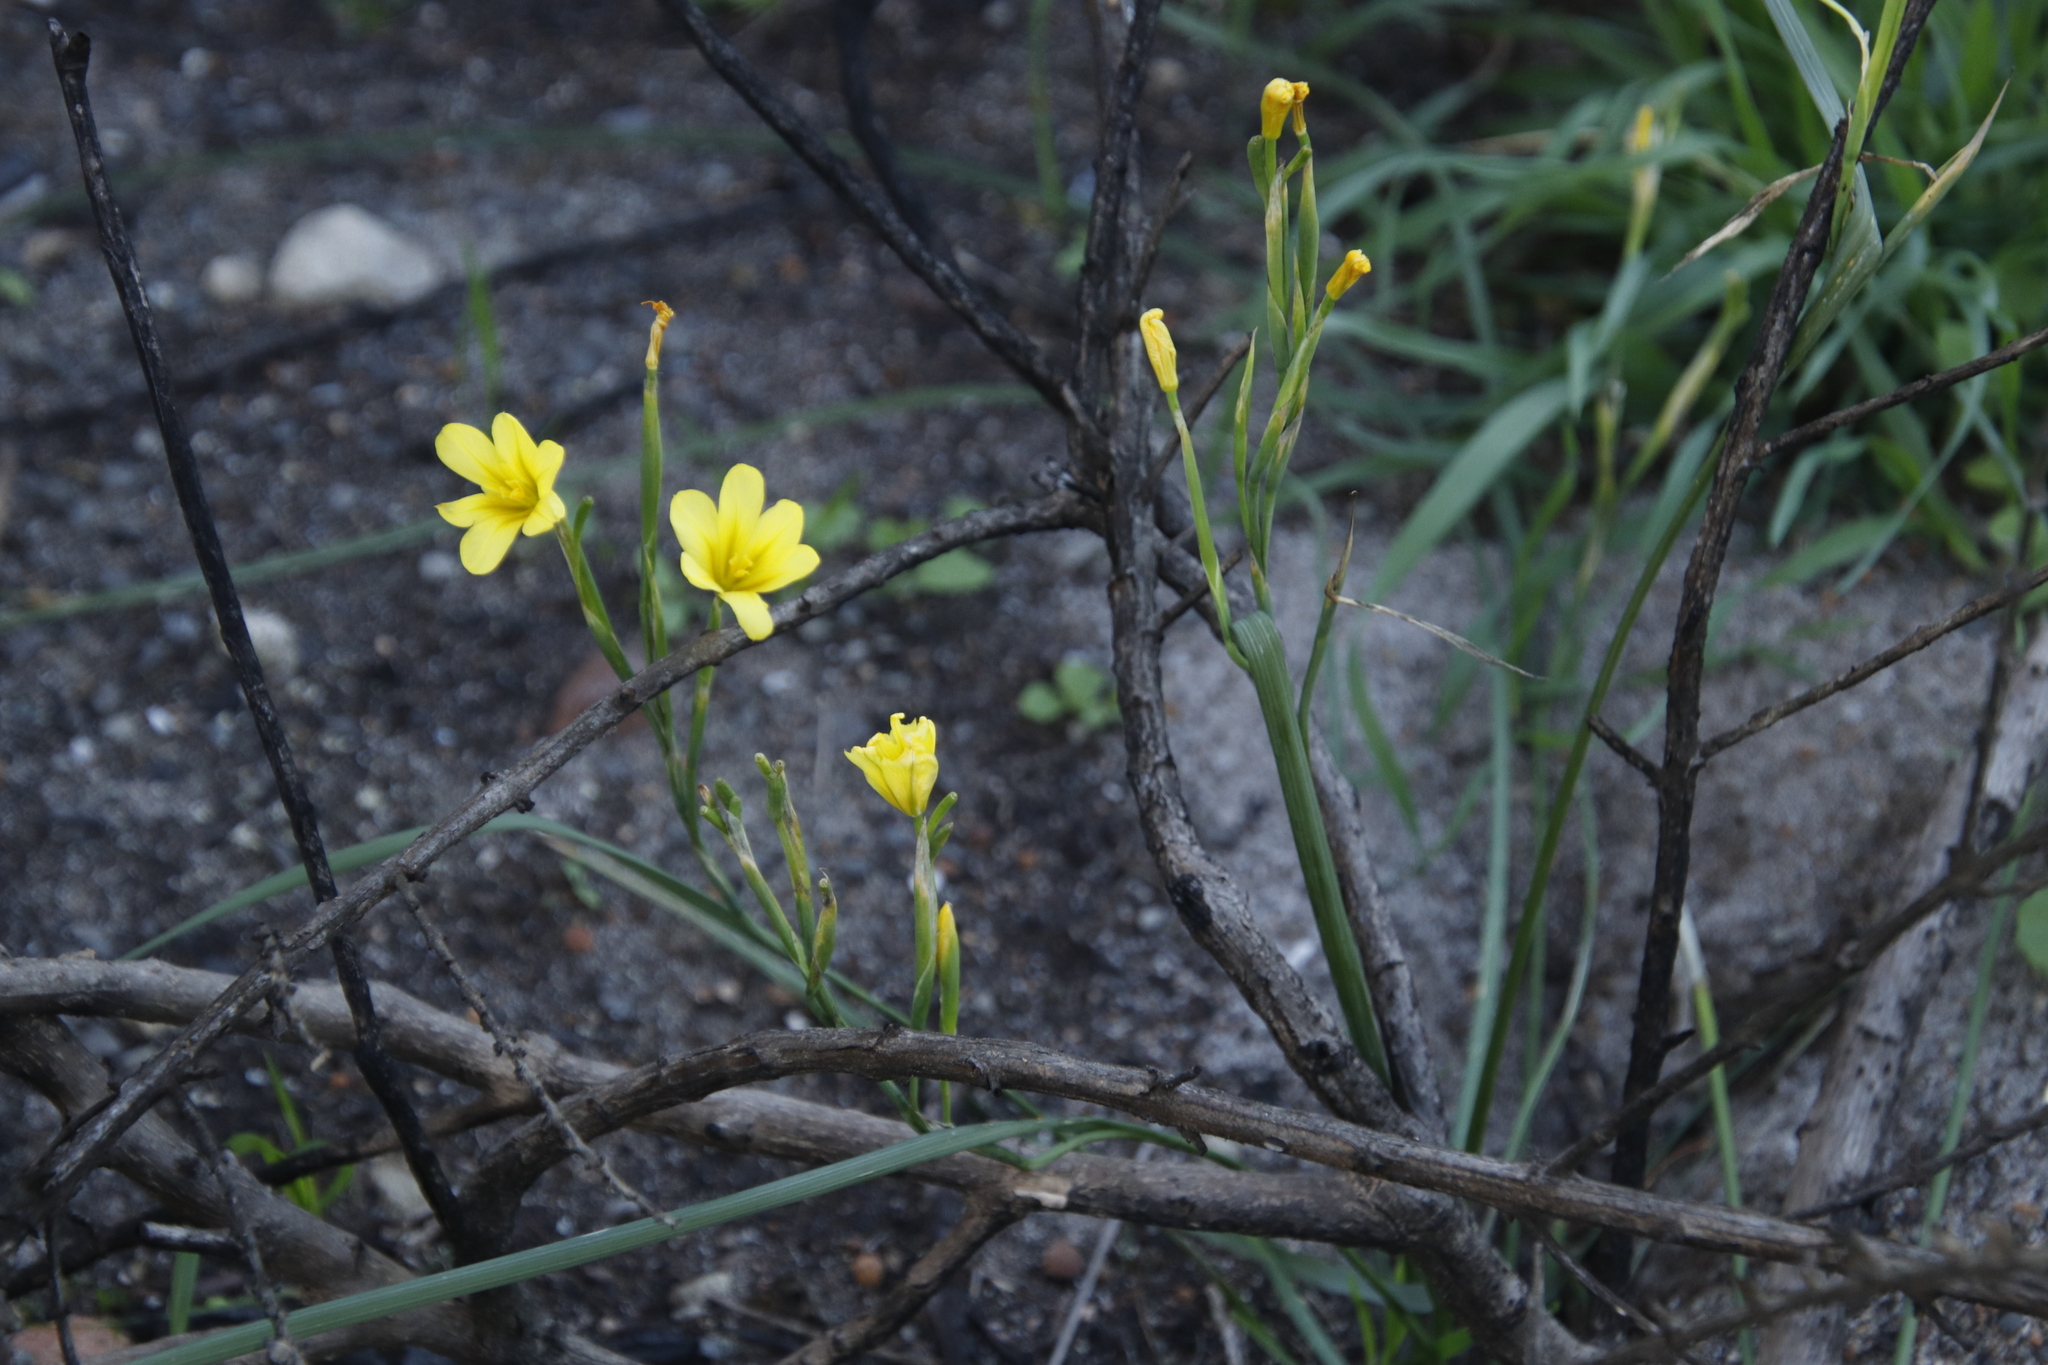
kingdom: Plantae
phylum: Tracheophyta
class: Liliopsida
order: Asparagales
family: Iridaceae
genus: Moraea
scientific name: Moraea ochroleuca
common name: Red tulp
